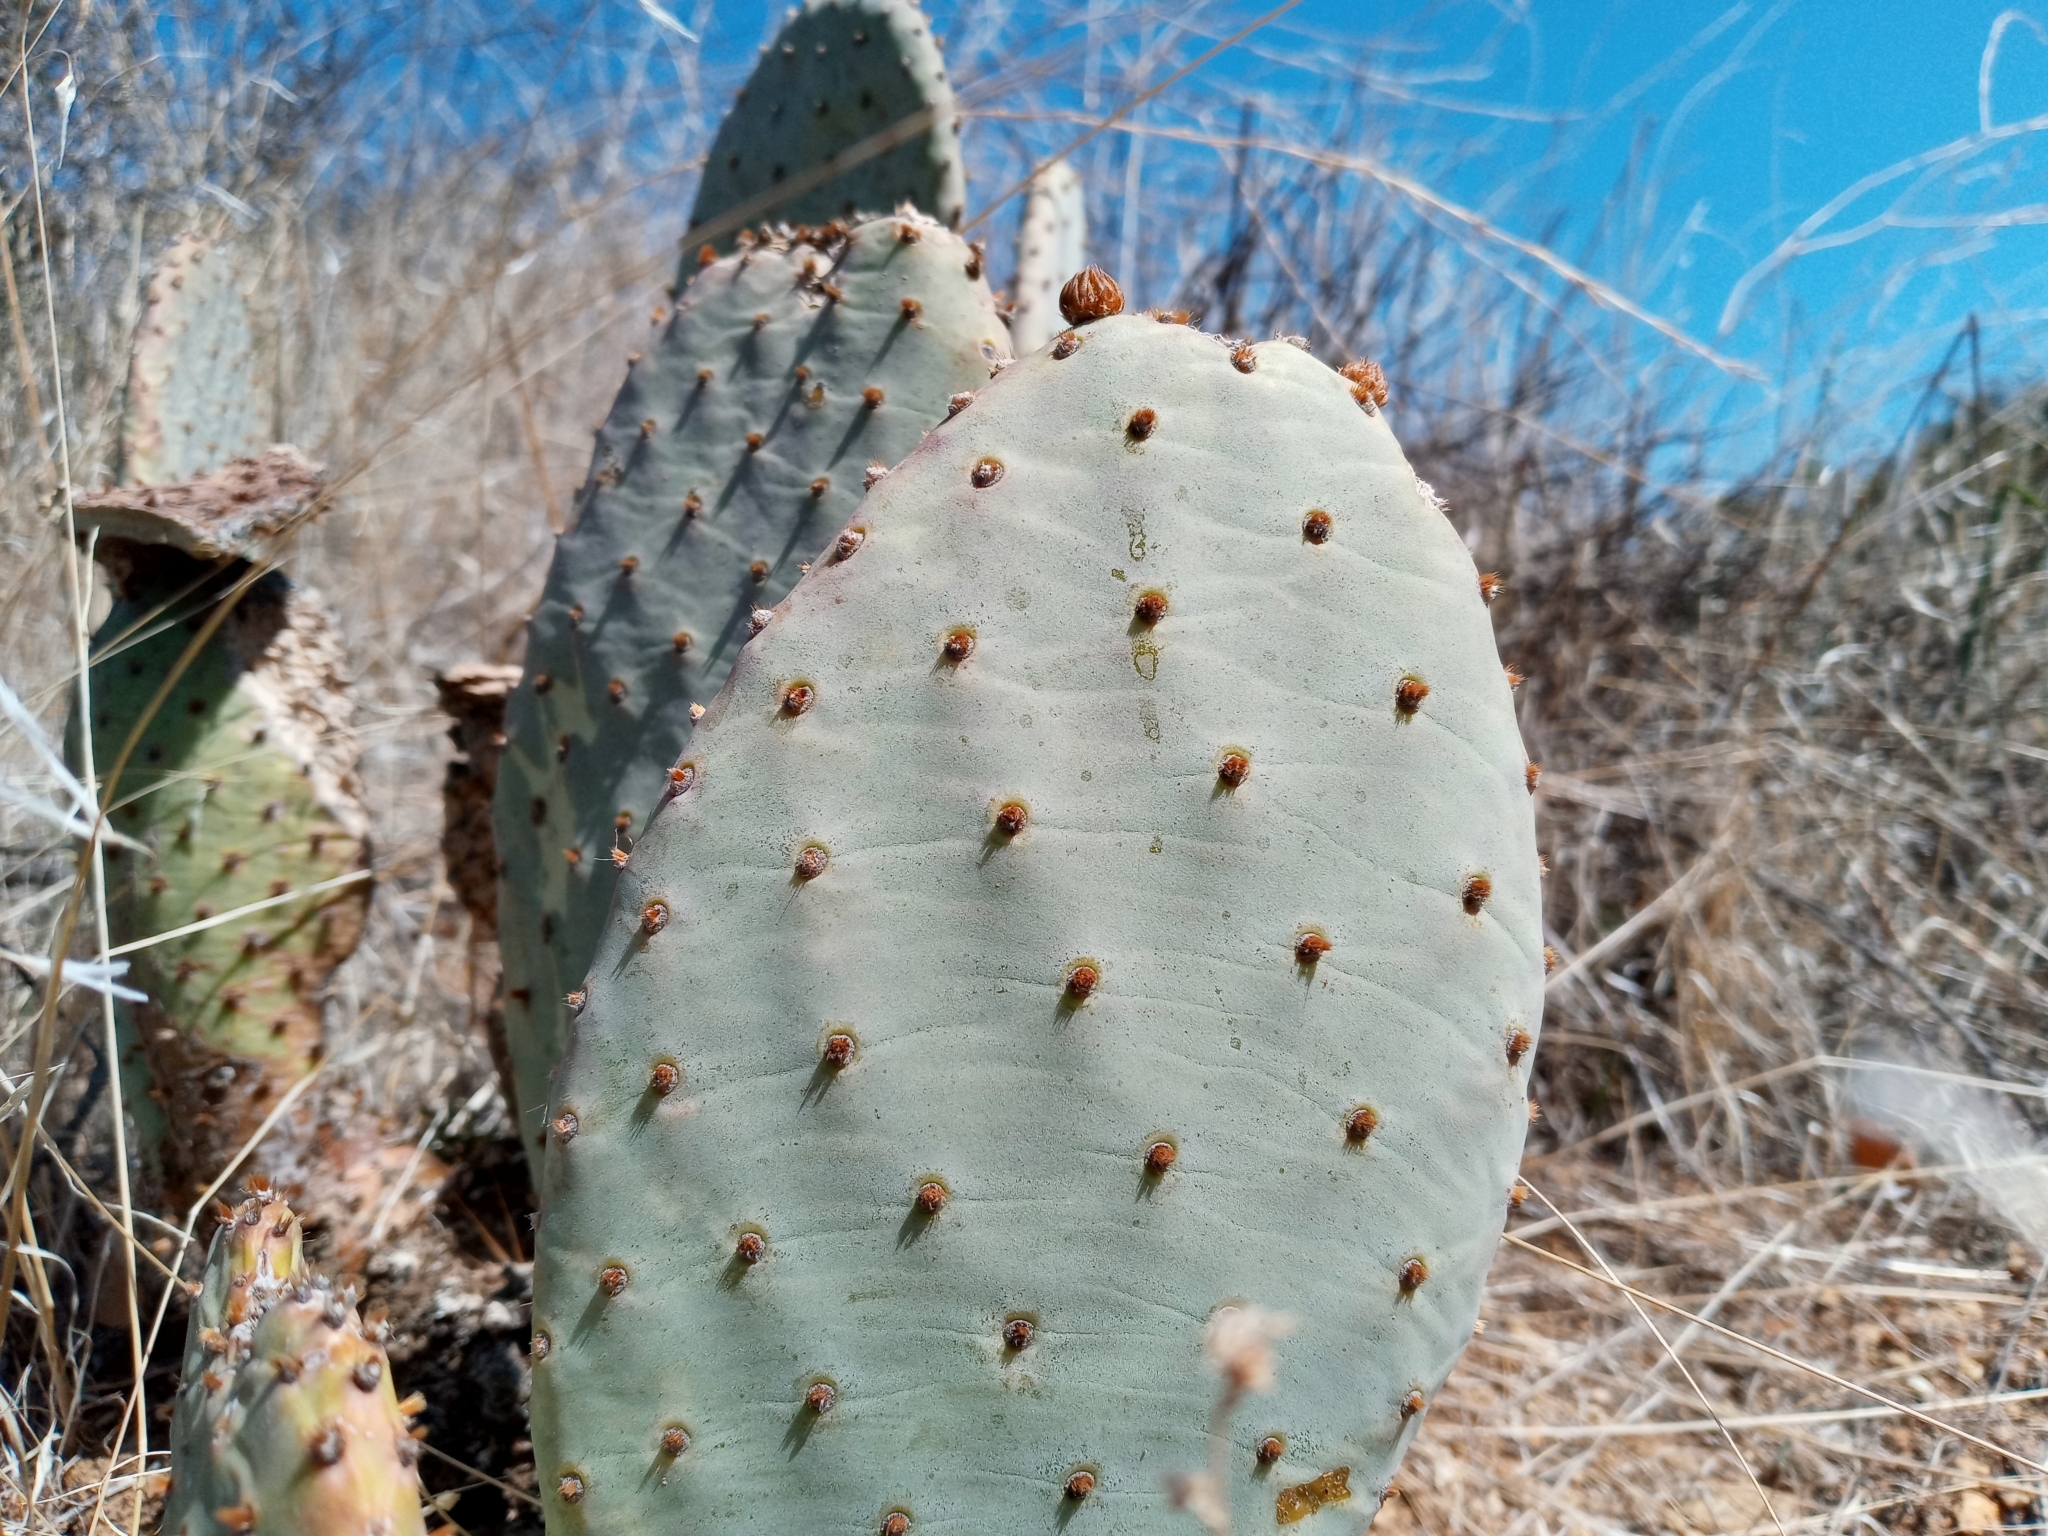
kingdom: Plantae
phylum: Tracheophyta
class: Magnoliopsida
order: Caryophyllales
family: Cactaceae
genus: Opuntia
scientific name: Opuntia basilaris
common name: Beavertail prickly-pear
